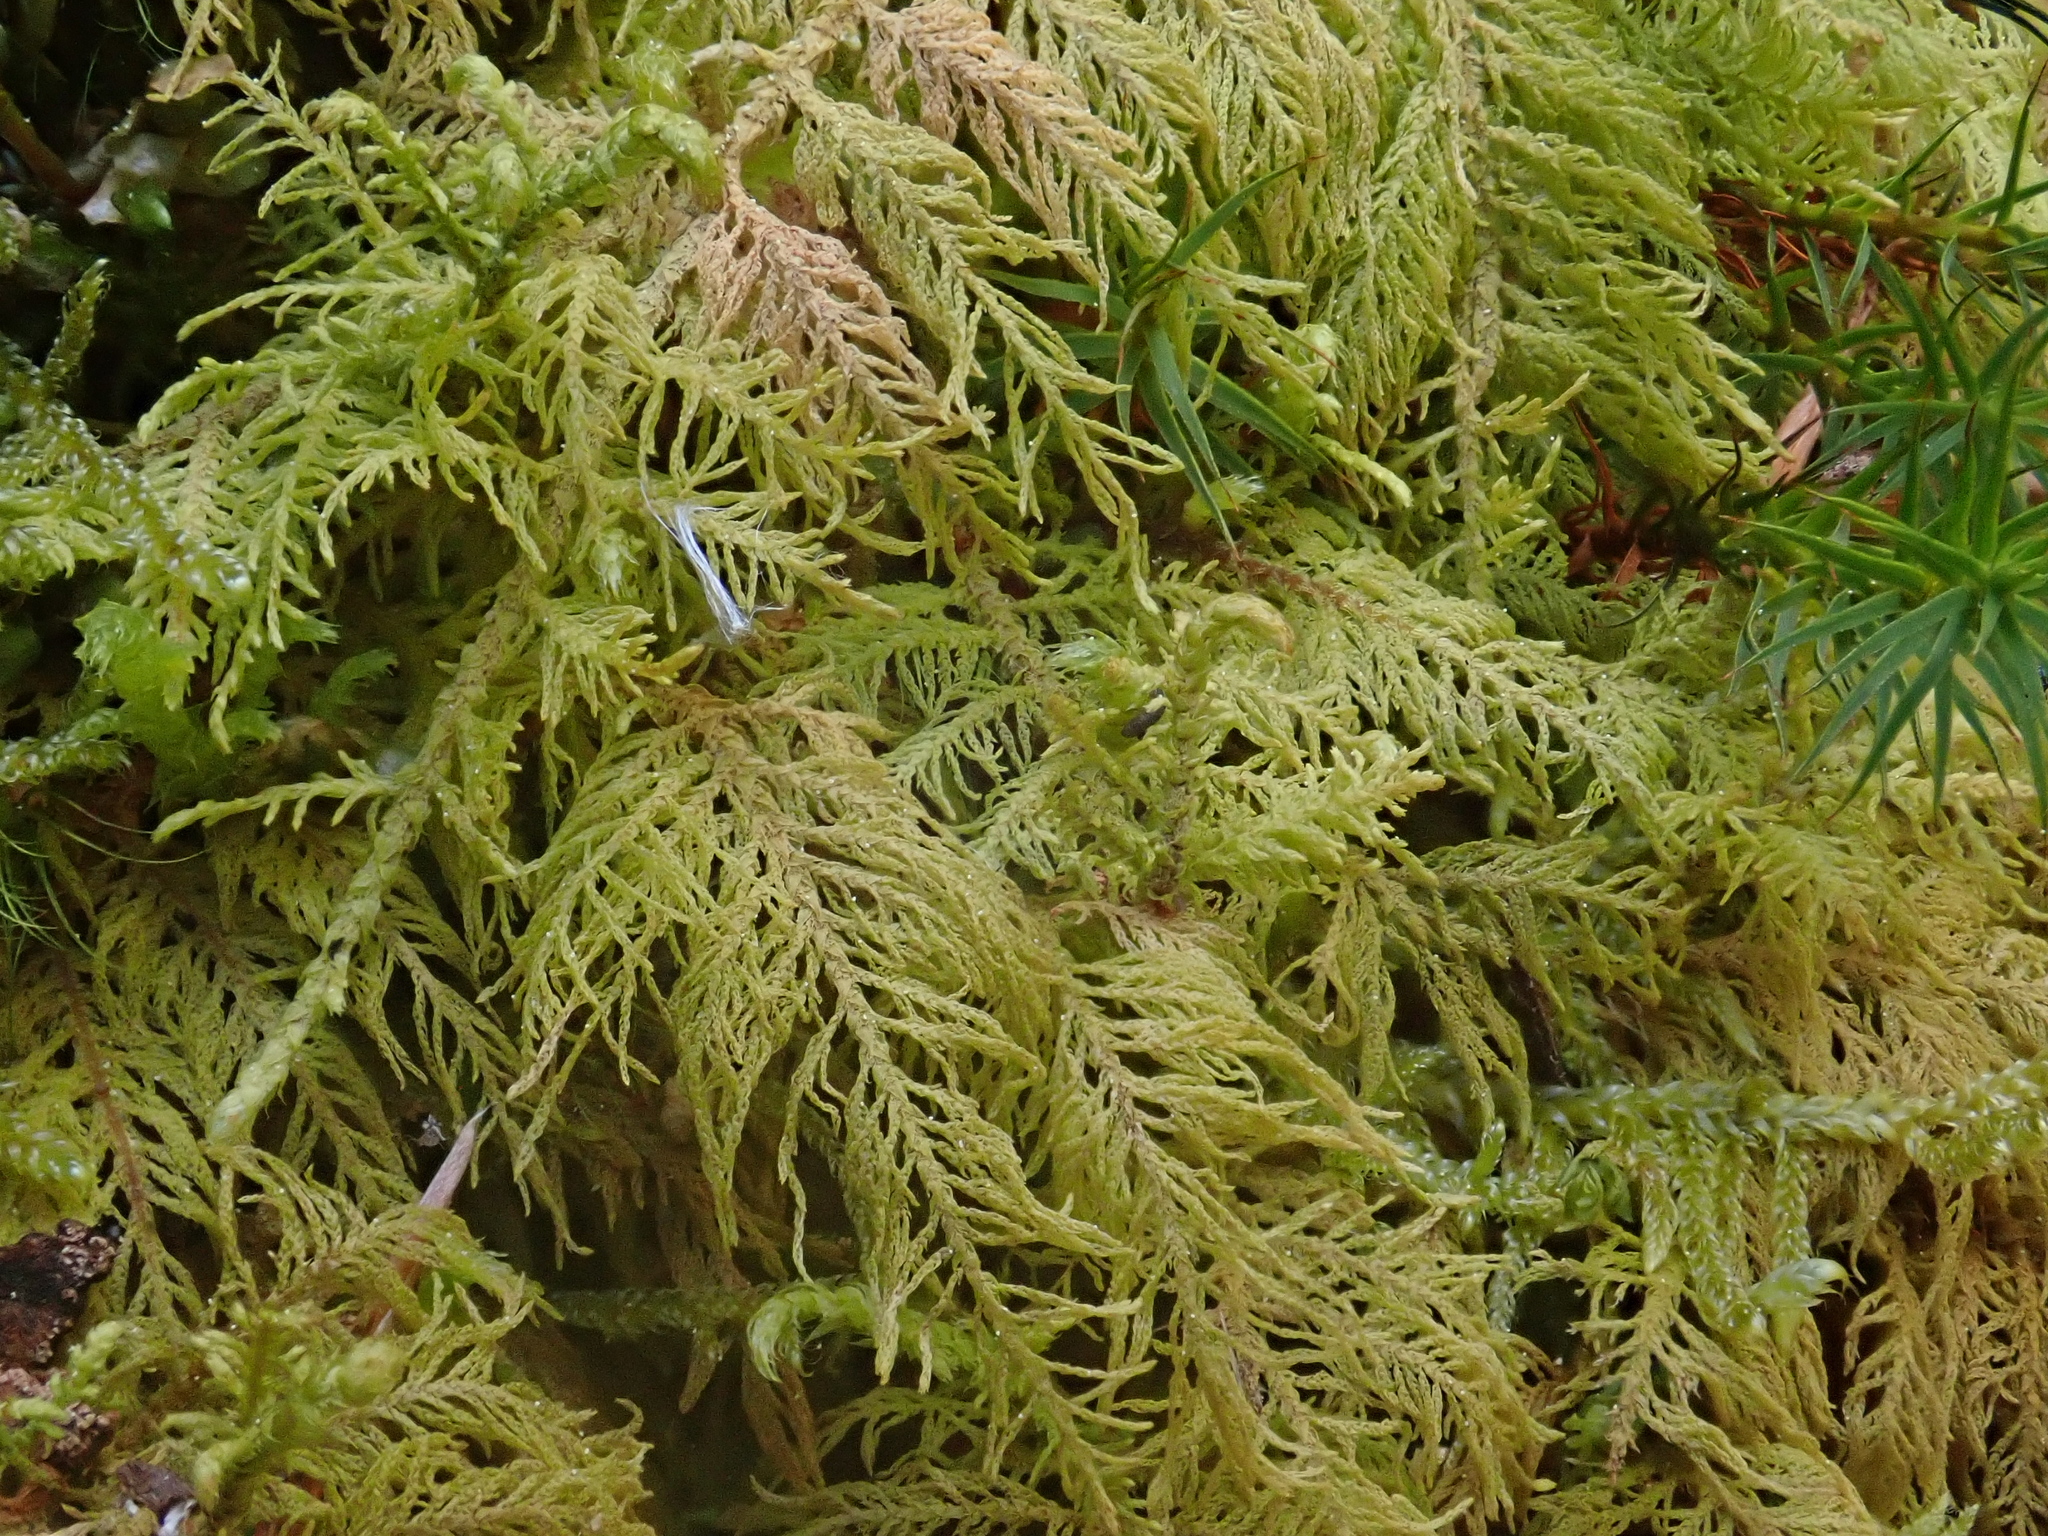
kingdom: Plantae
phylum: Bryophyta
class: Bryopsida
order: Hypnales
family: Thuidiaceae
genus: Thuidium
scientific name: Thuidium delicatulum
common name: Delicate fern moss
